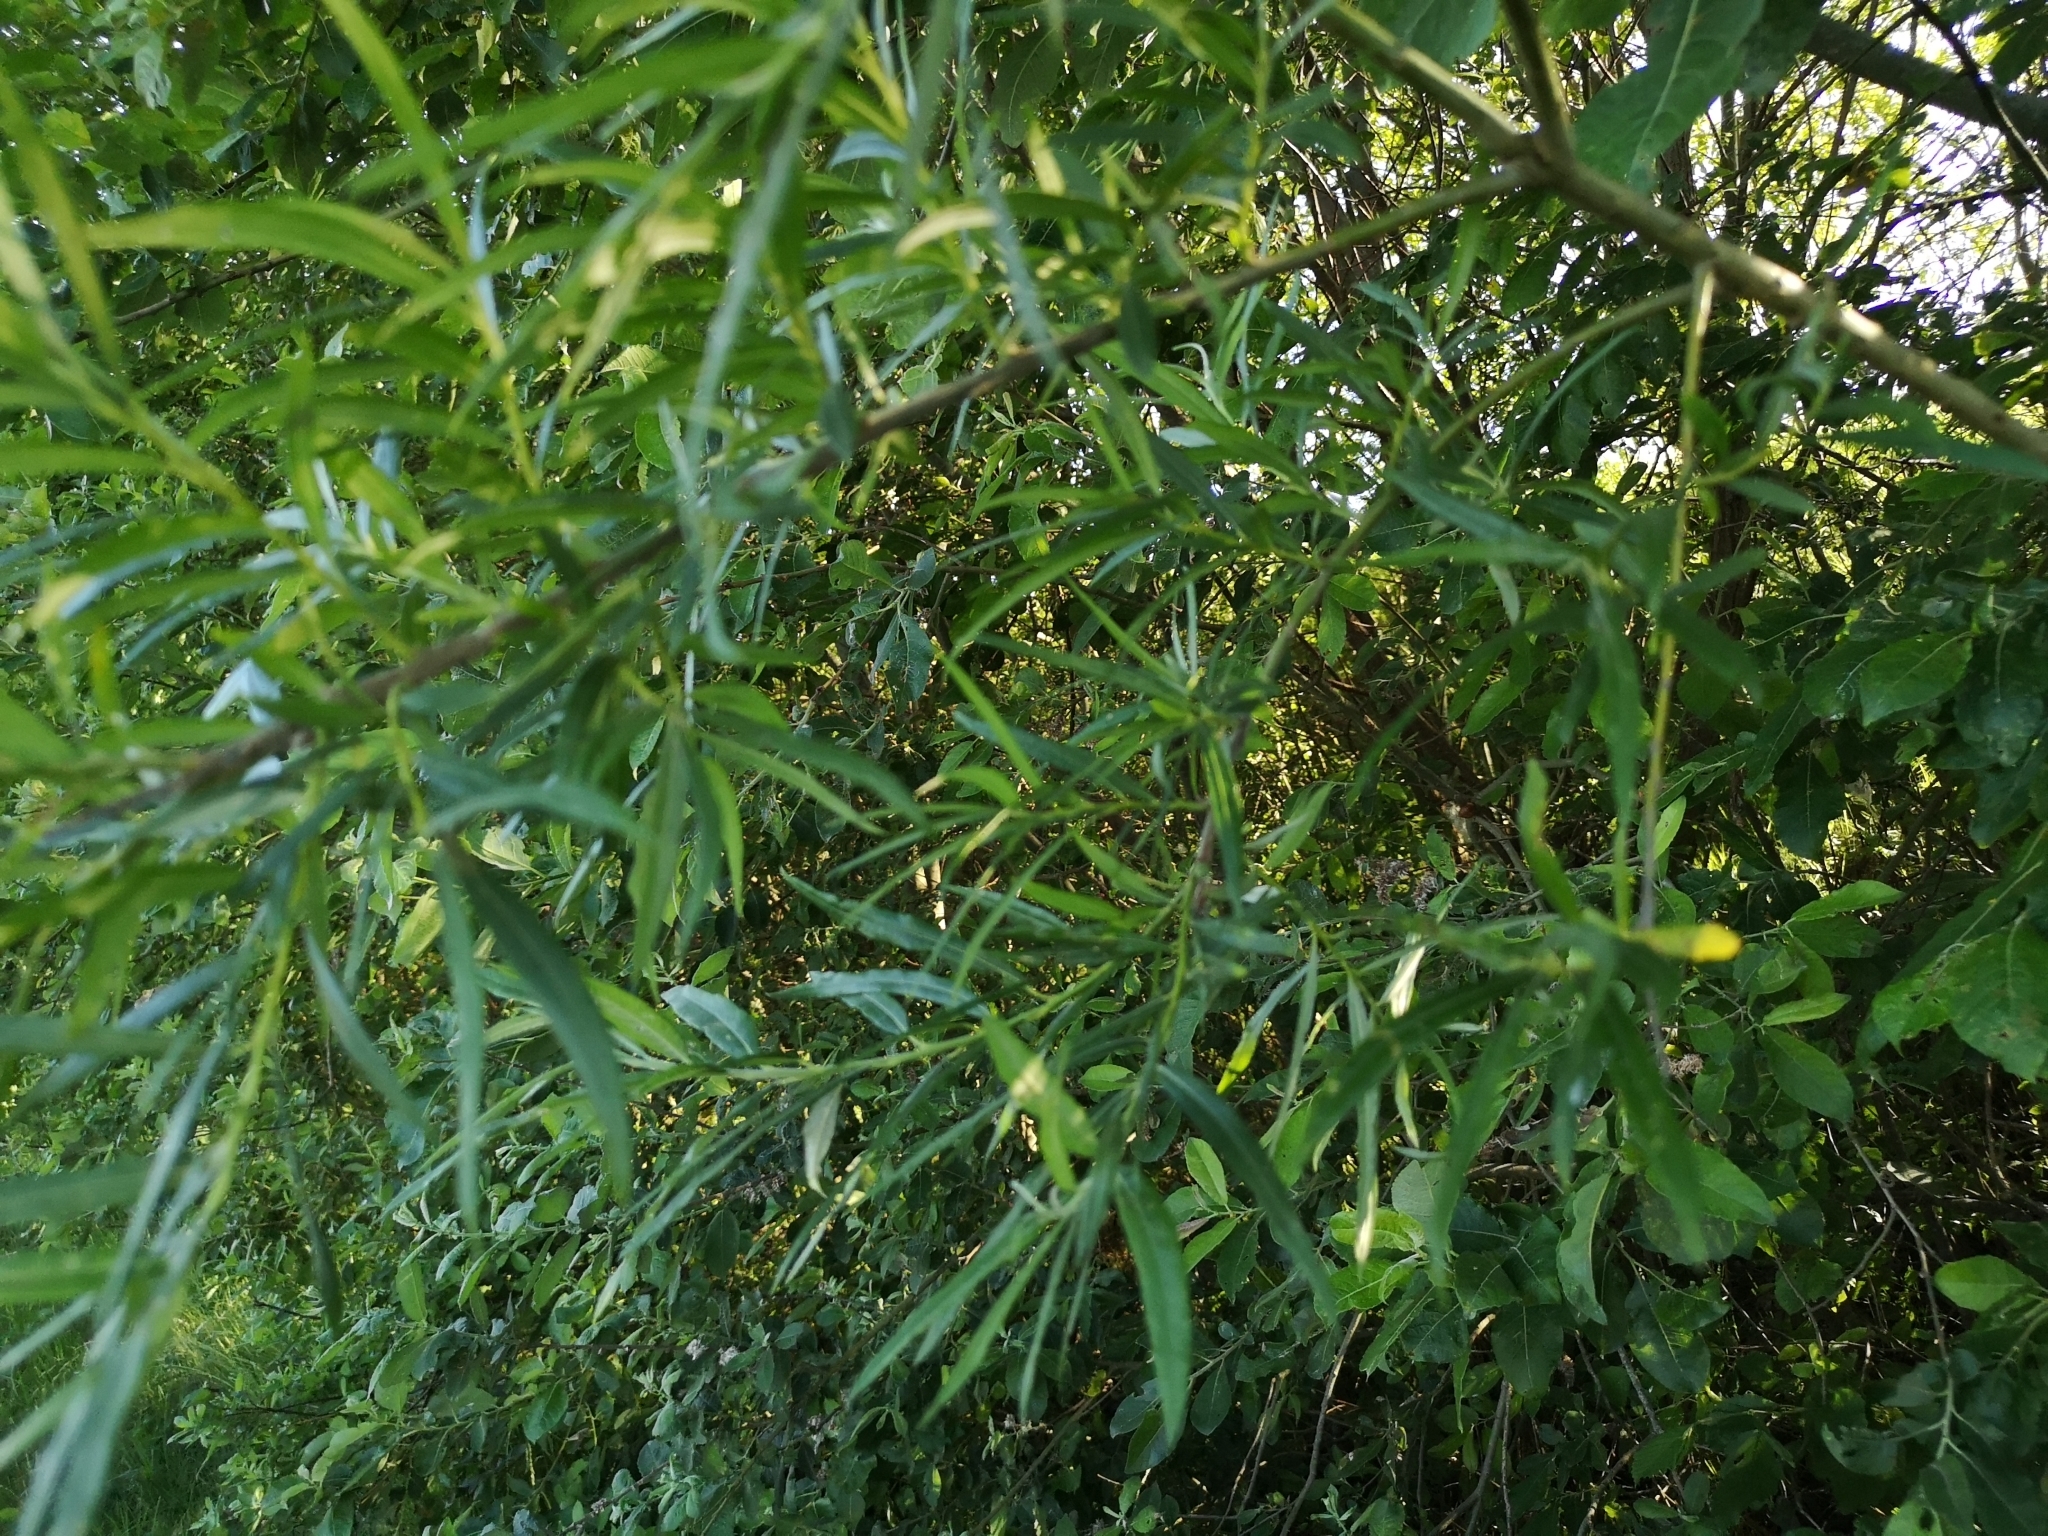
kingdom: Plantae
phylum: Tracheophyta
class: Magnoliopsida
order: Malpighiales
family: Salicaceae
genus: Salix
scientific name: Salix viminalis
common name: Osier
